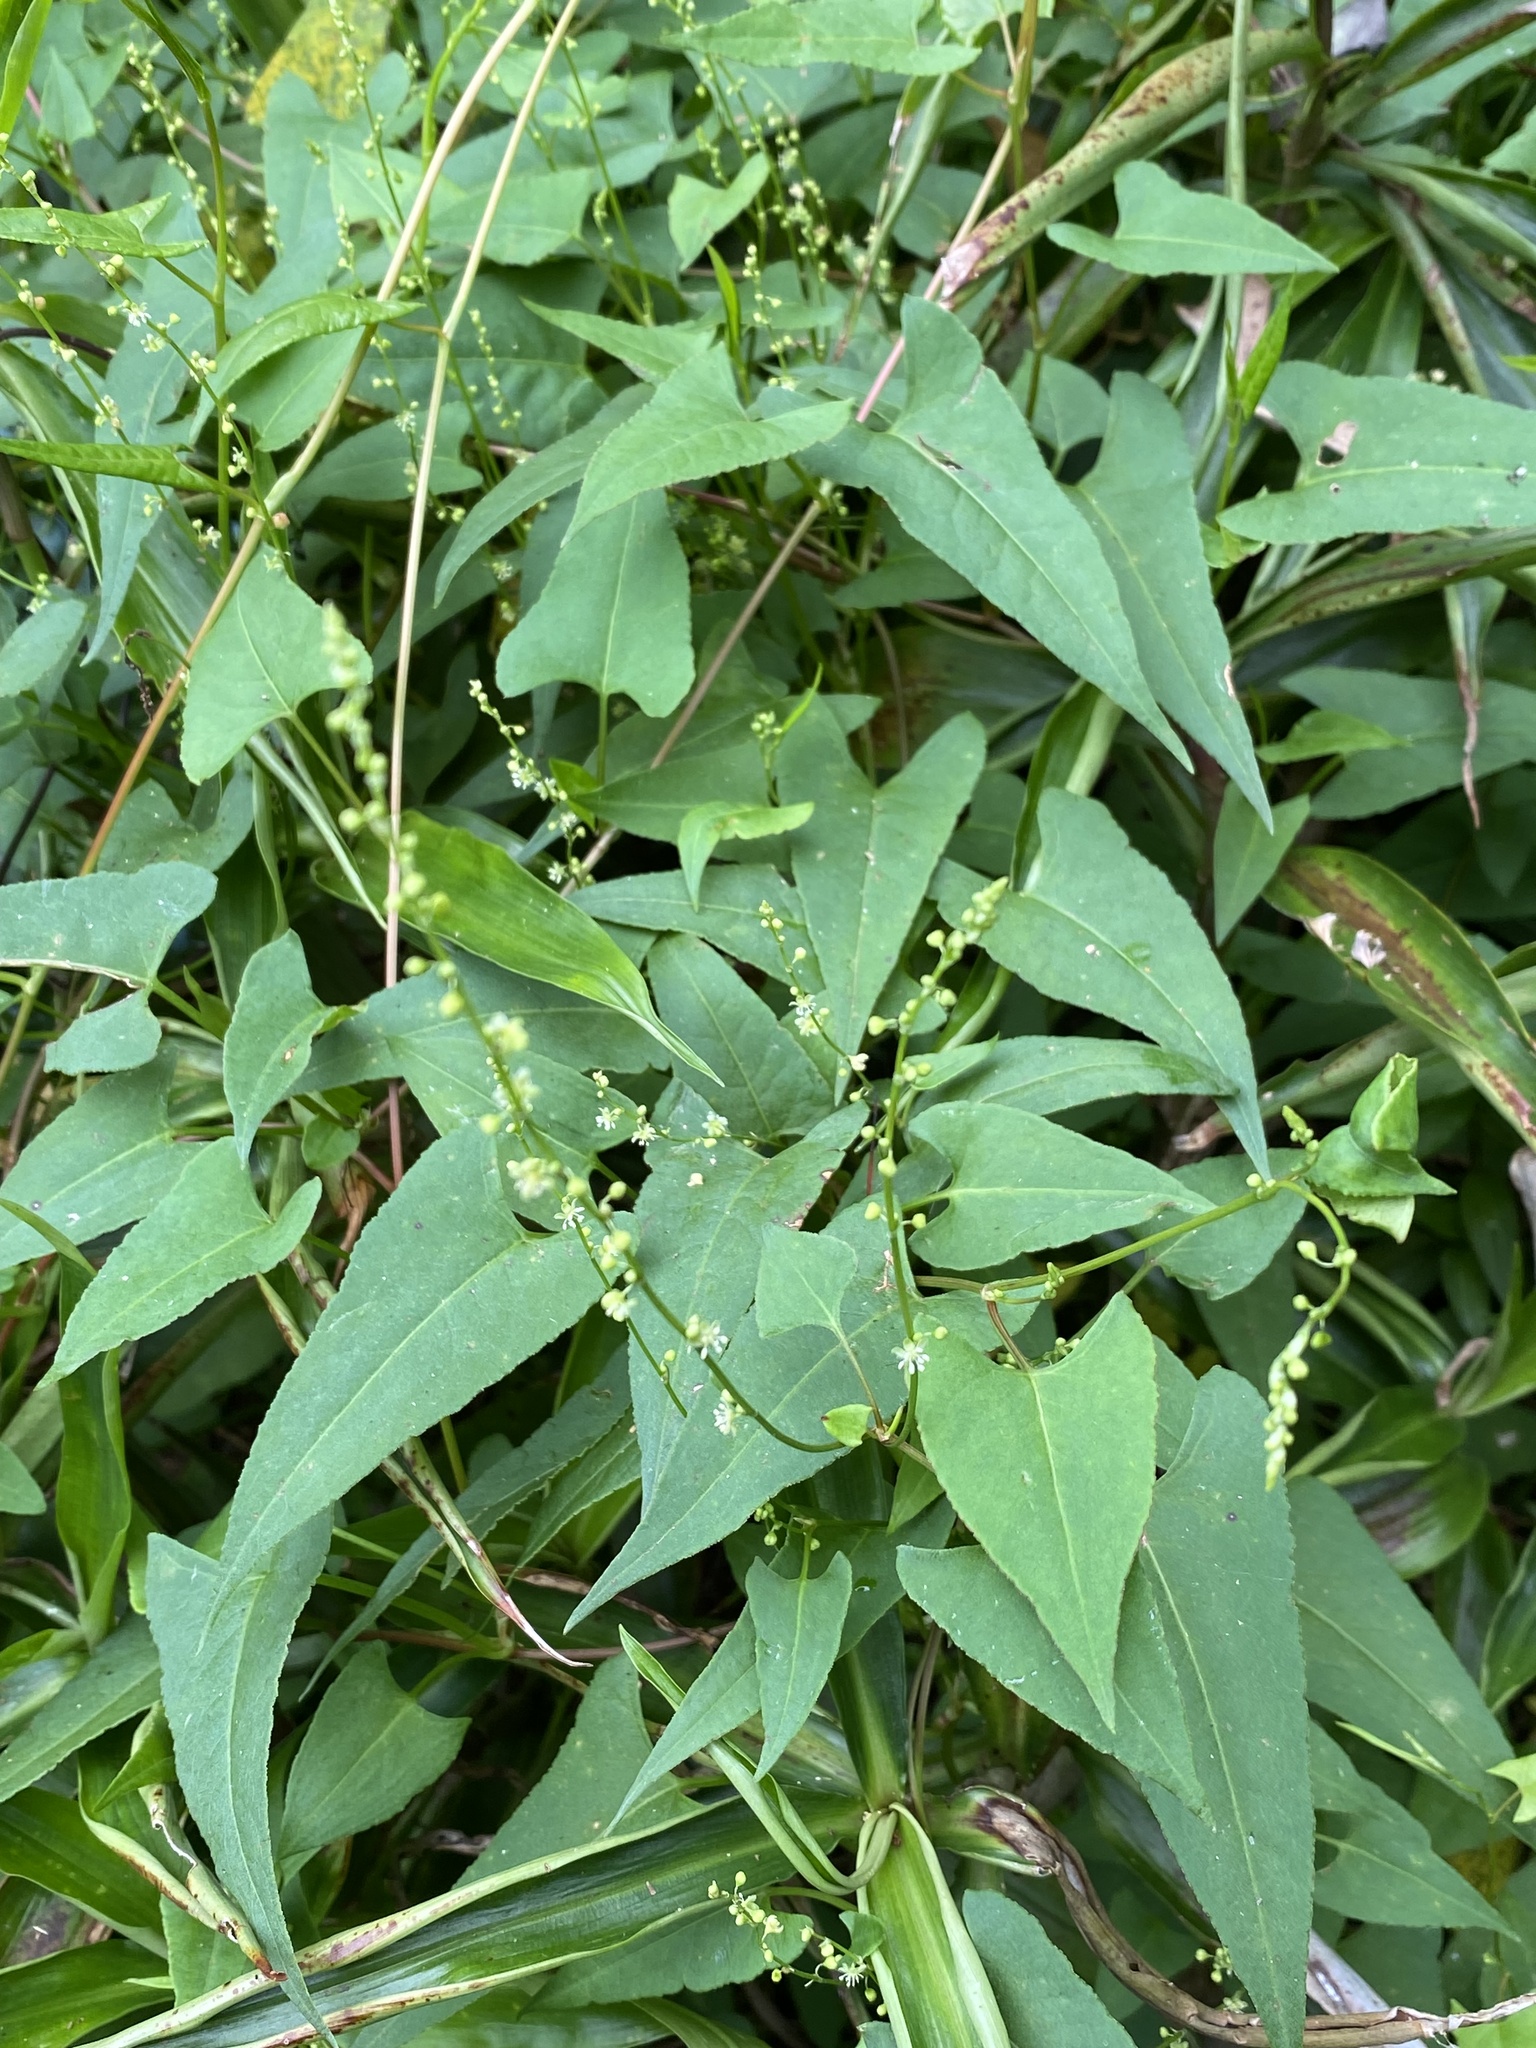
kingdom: Plantae
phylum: Tracheophyta
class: Magnoliopsida
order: Caryophyllales
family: Polygonaceae
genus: Muehlenbeckia
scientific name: Muehlenbeckia gracillima
